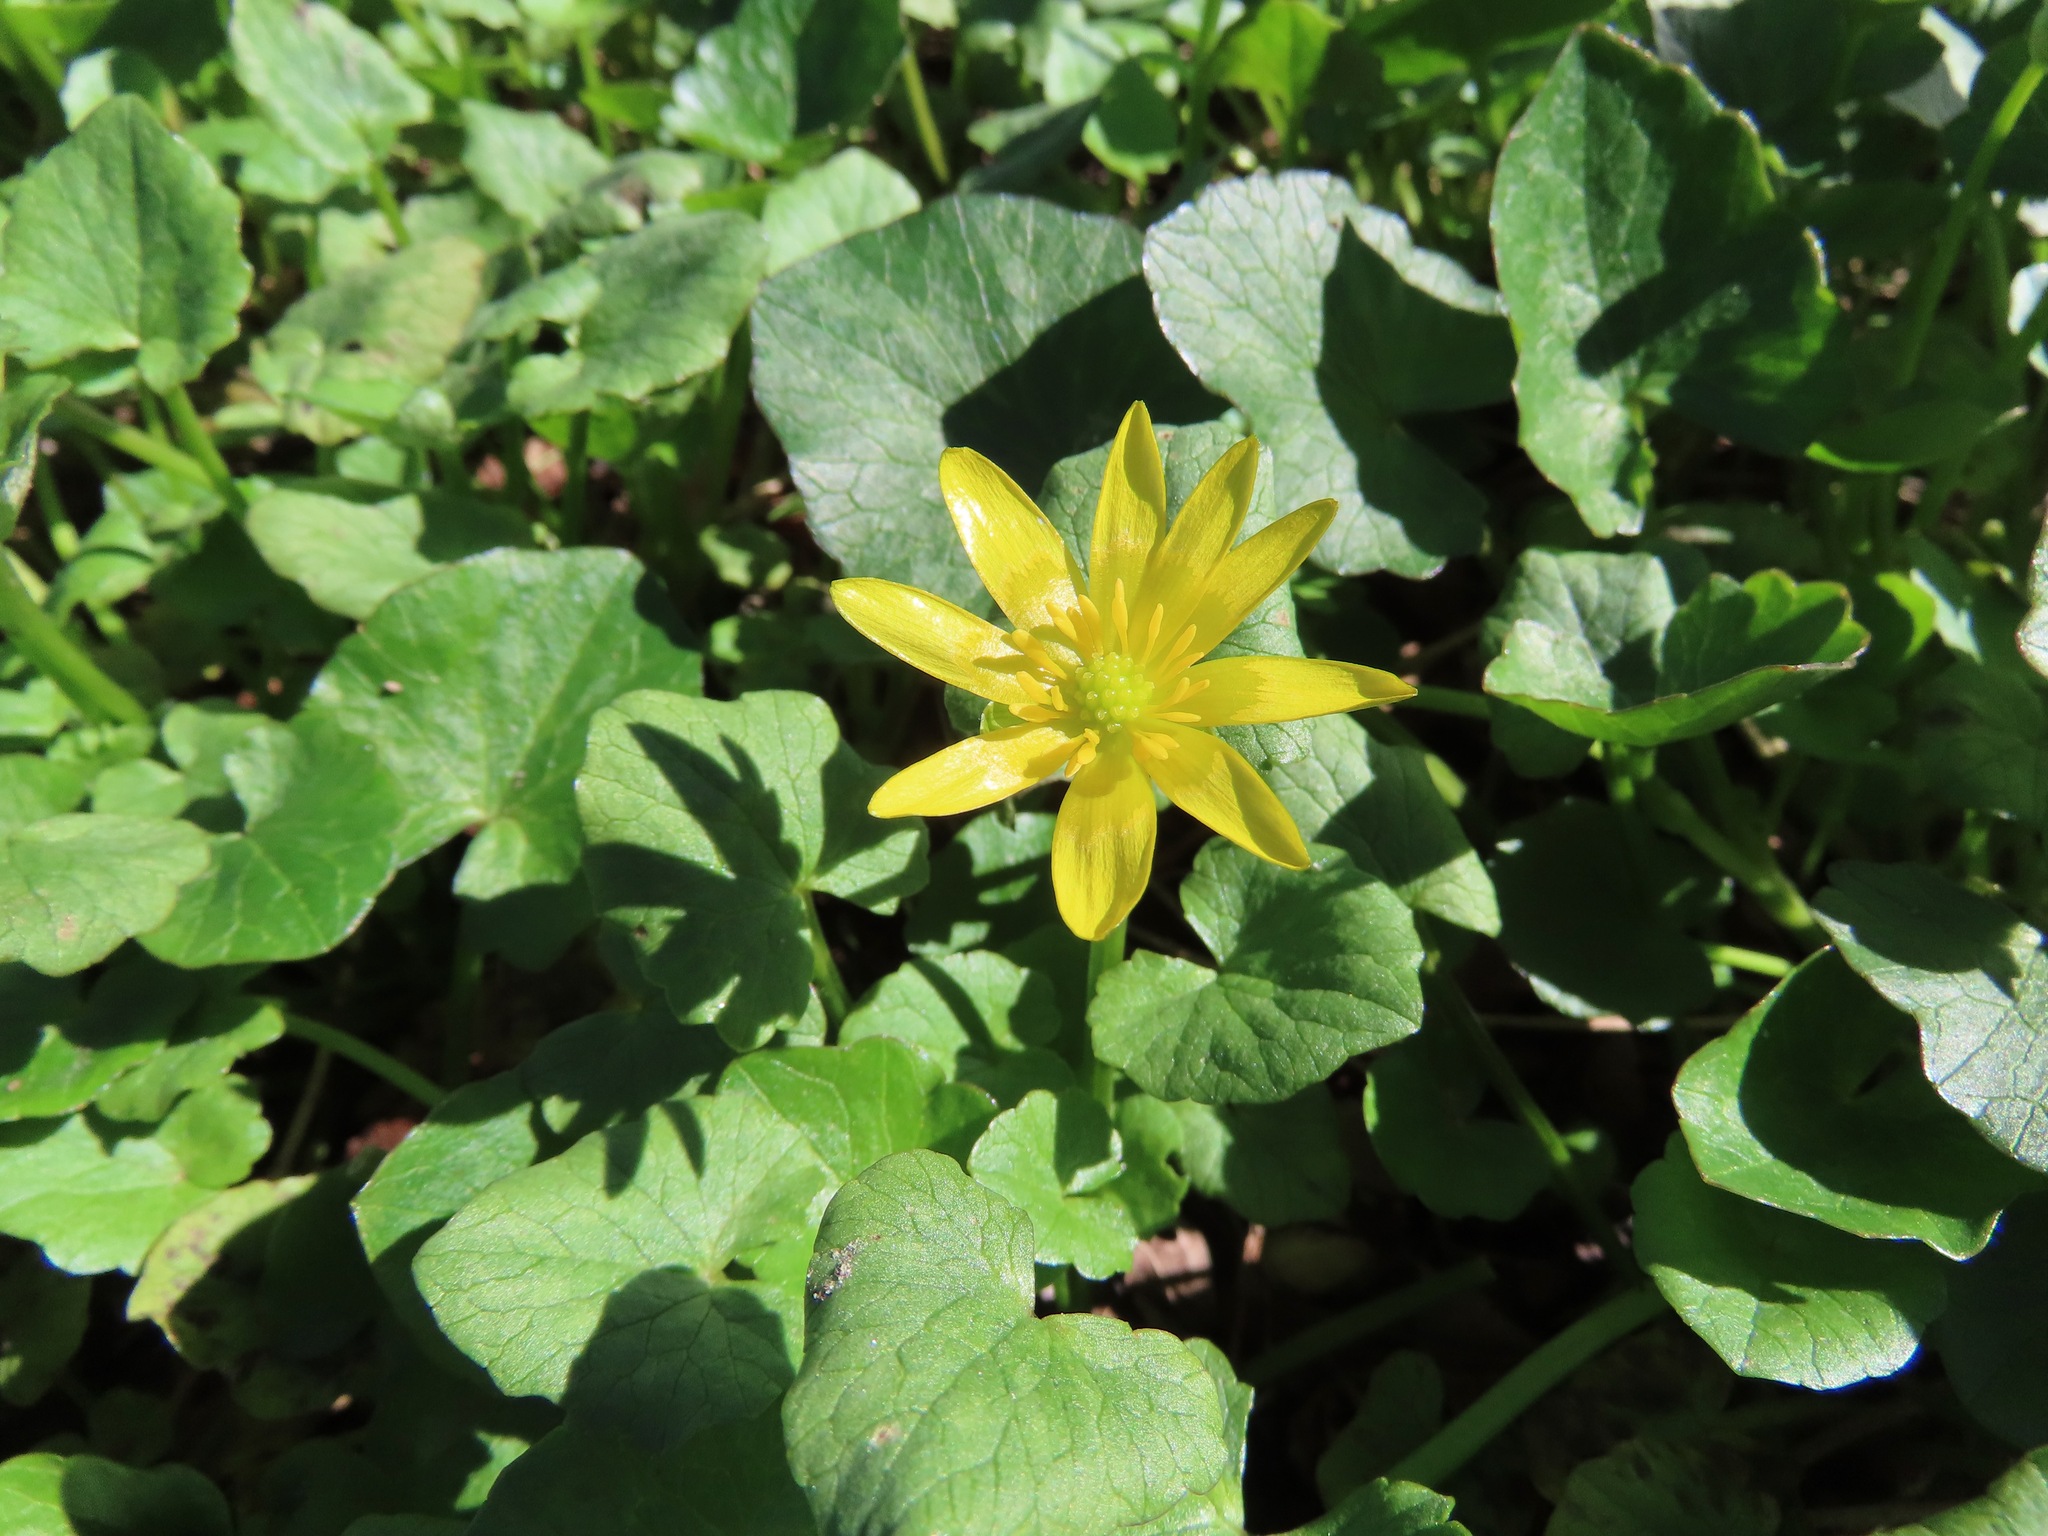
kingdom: Plantae
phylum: Tracheophyta
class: Magnoliopsida
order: Ranunculales
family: Ranunculaceae
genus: Ficaria
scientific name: Ficaria verna
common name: Lesser celandine
